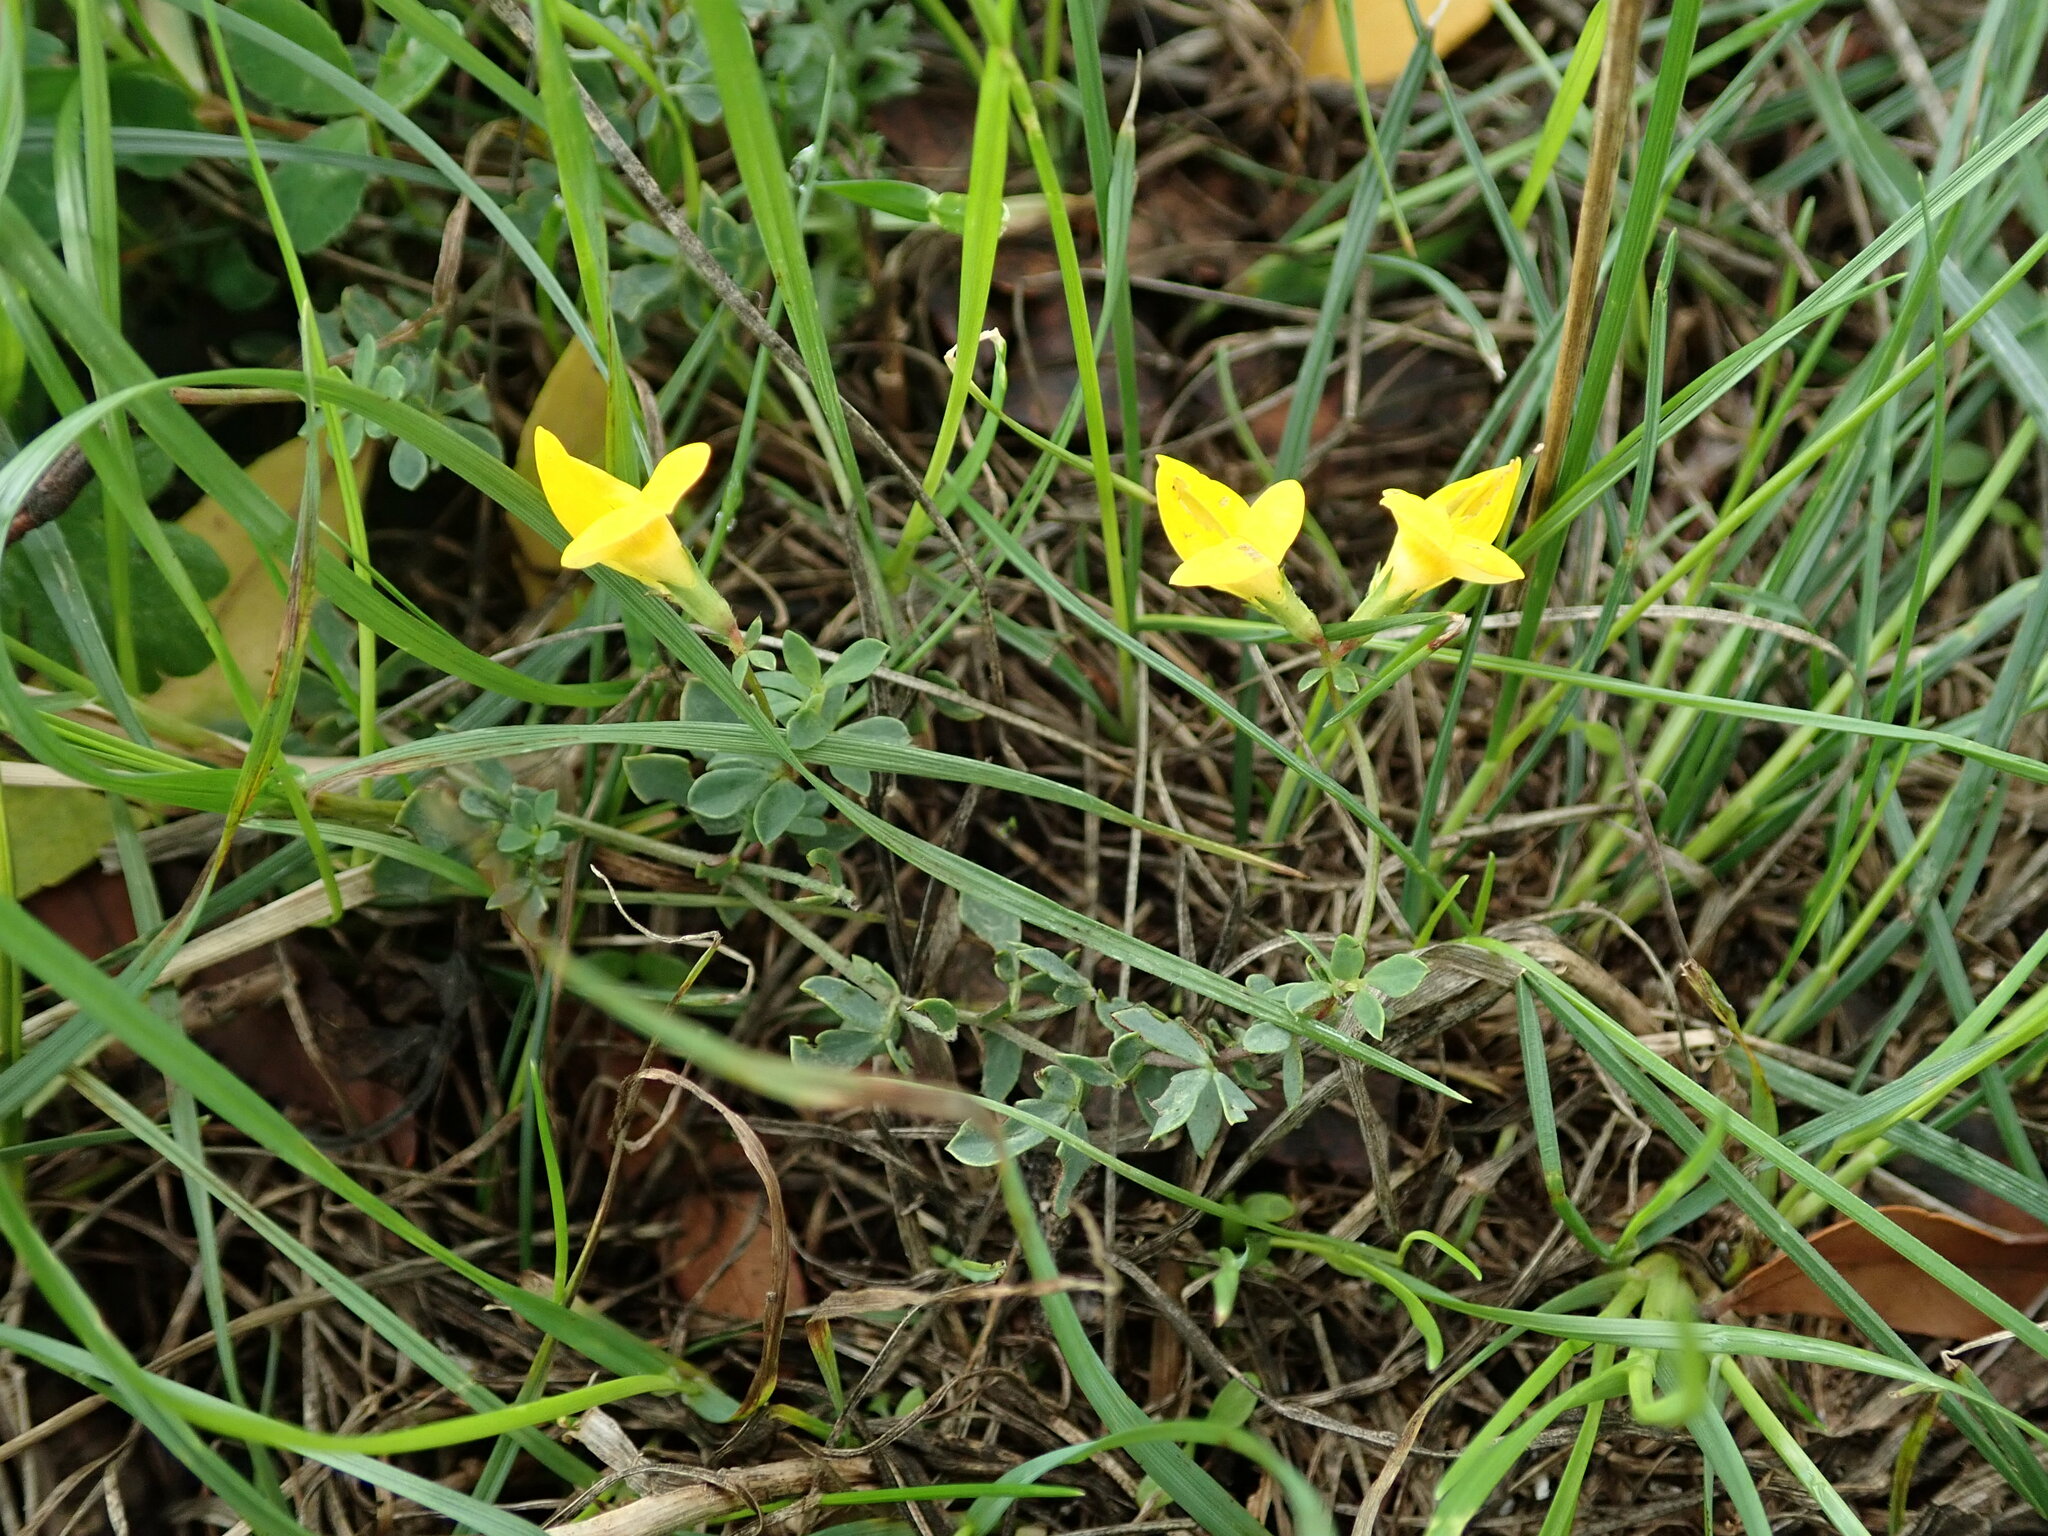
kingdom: Plantae
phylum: Tracheophyta
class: Magnoliopsida
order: Fabales
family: Fabaceae
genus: Lotus
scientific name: Lotus corniculatus
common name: Common bird's-foot-trefoil
